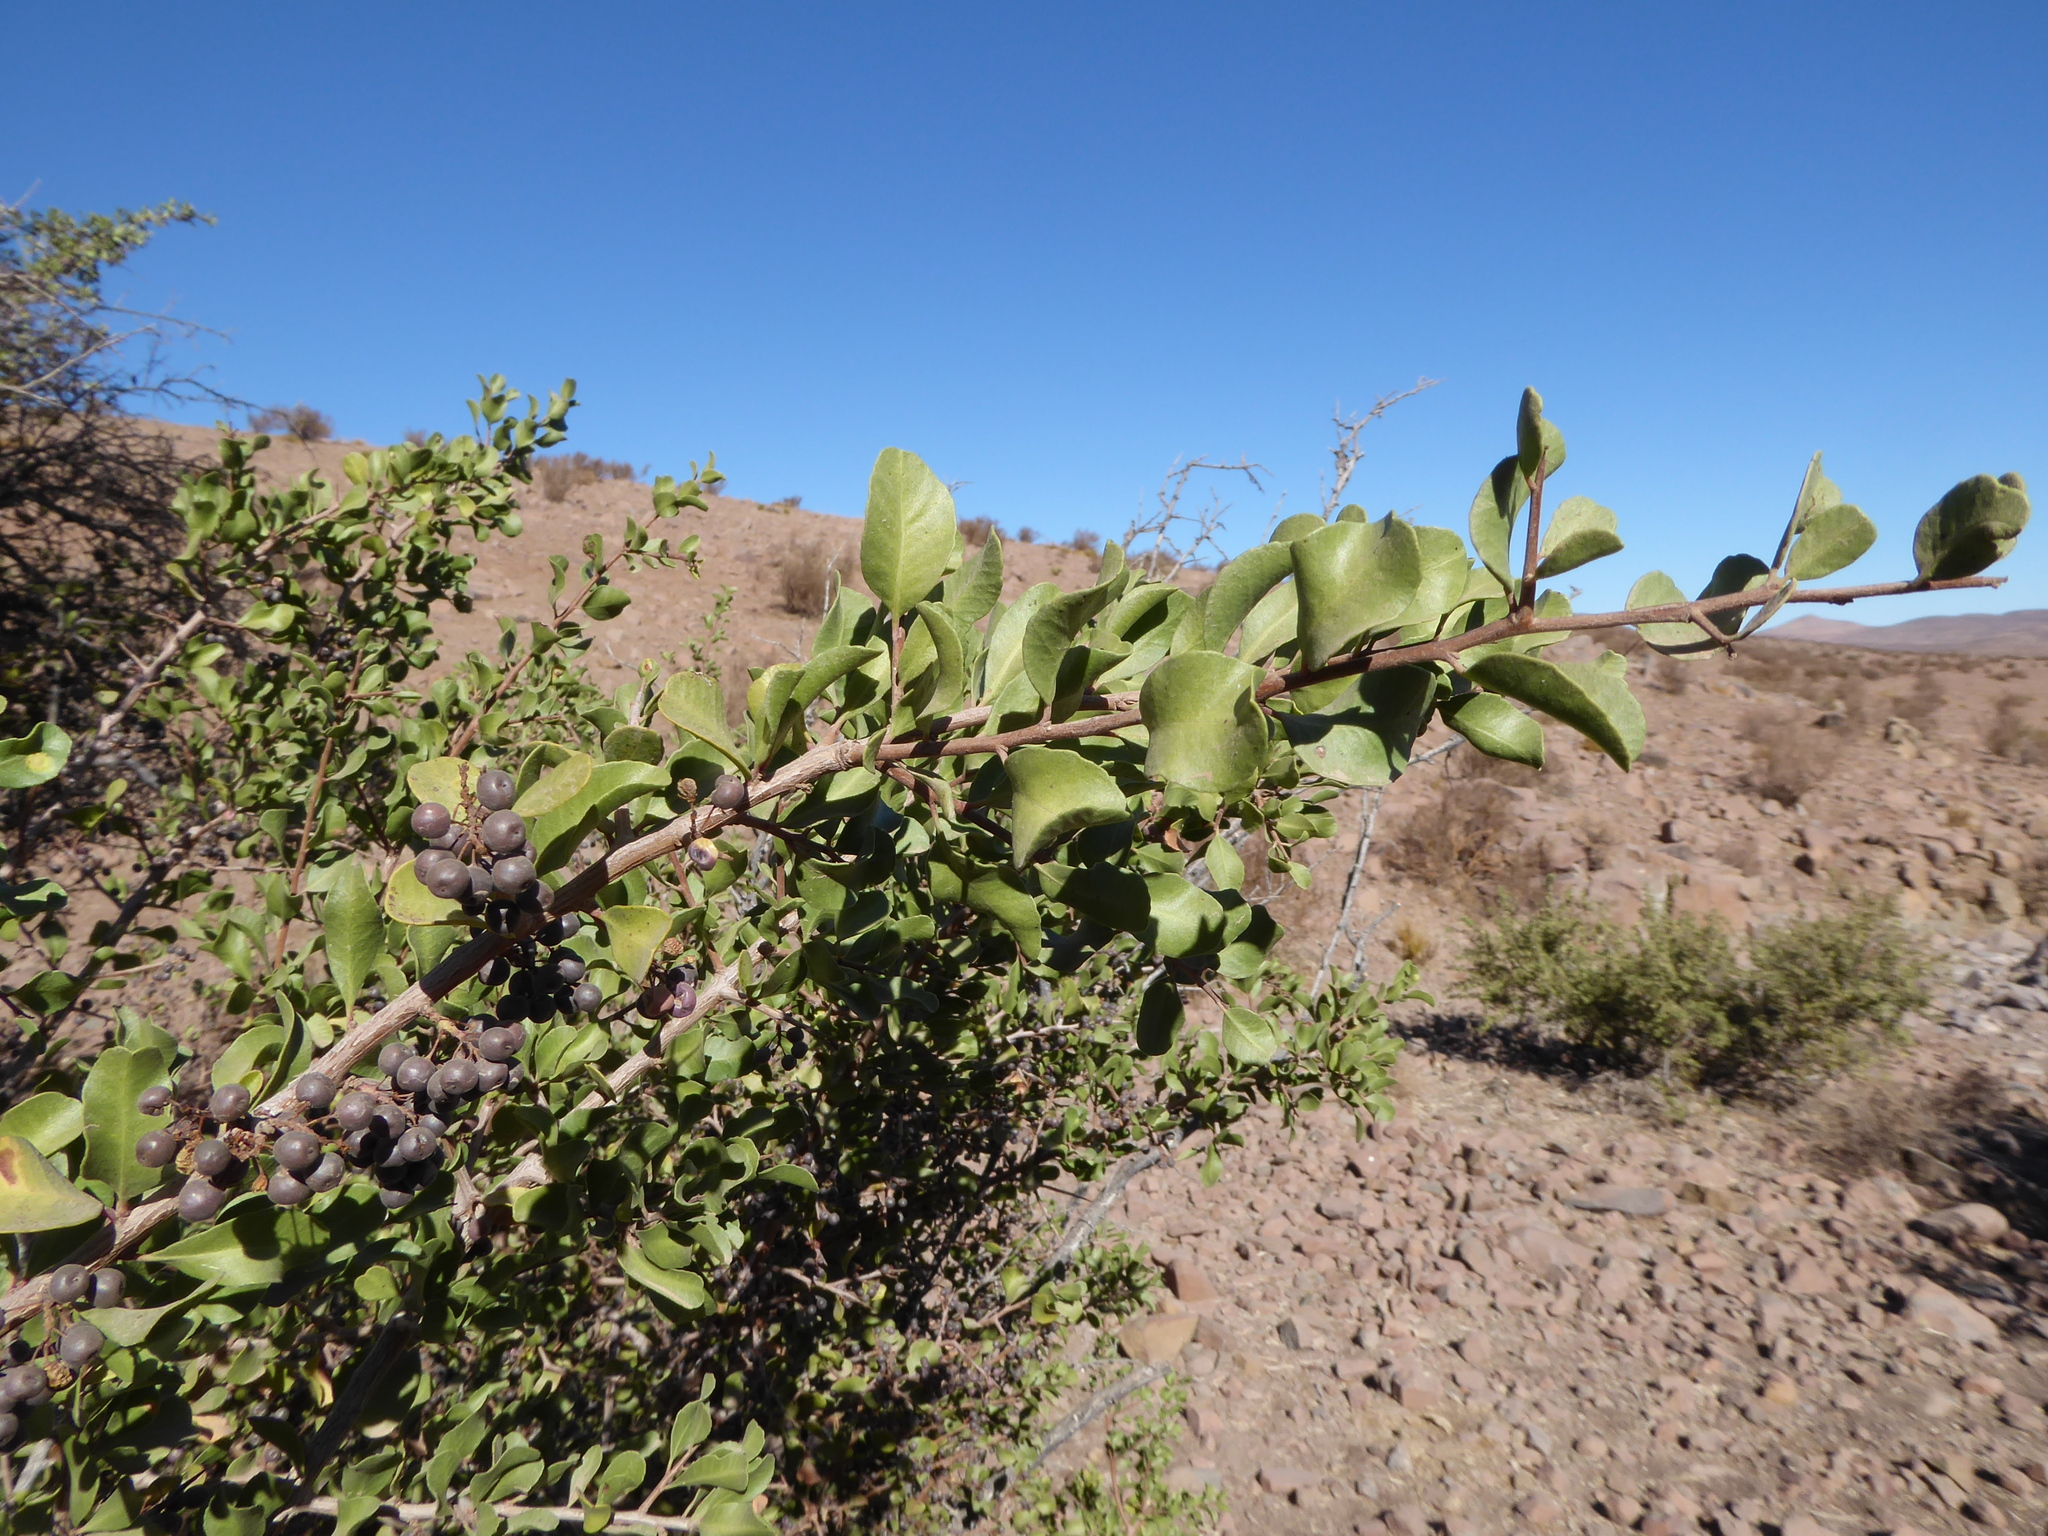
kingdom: Plantae
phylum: Tracheophyta
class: Magnoliopsida
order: Sapindales
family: Anacardiaceae
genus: Schinus
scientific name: Schinus polygama
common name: Hardee peppertree
